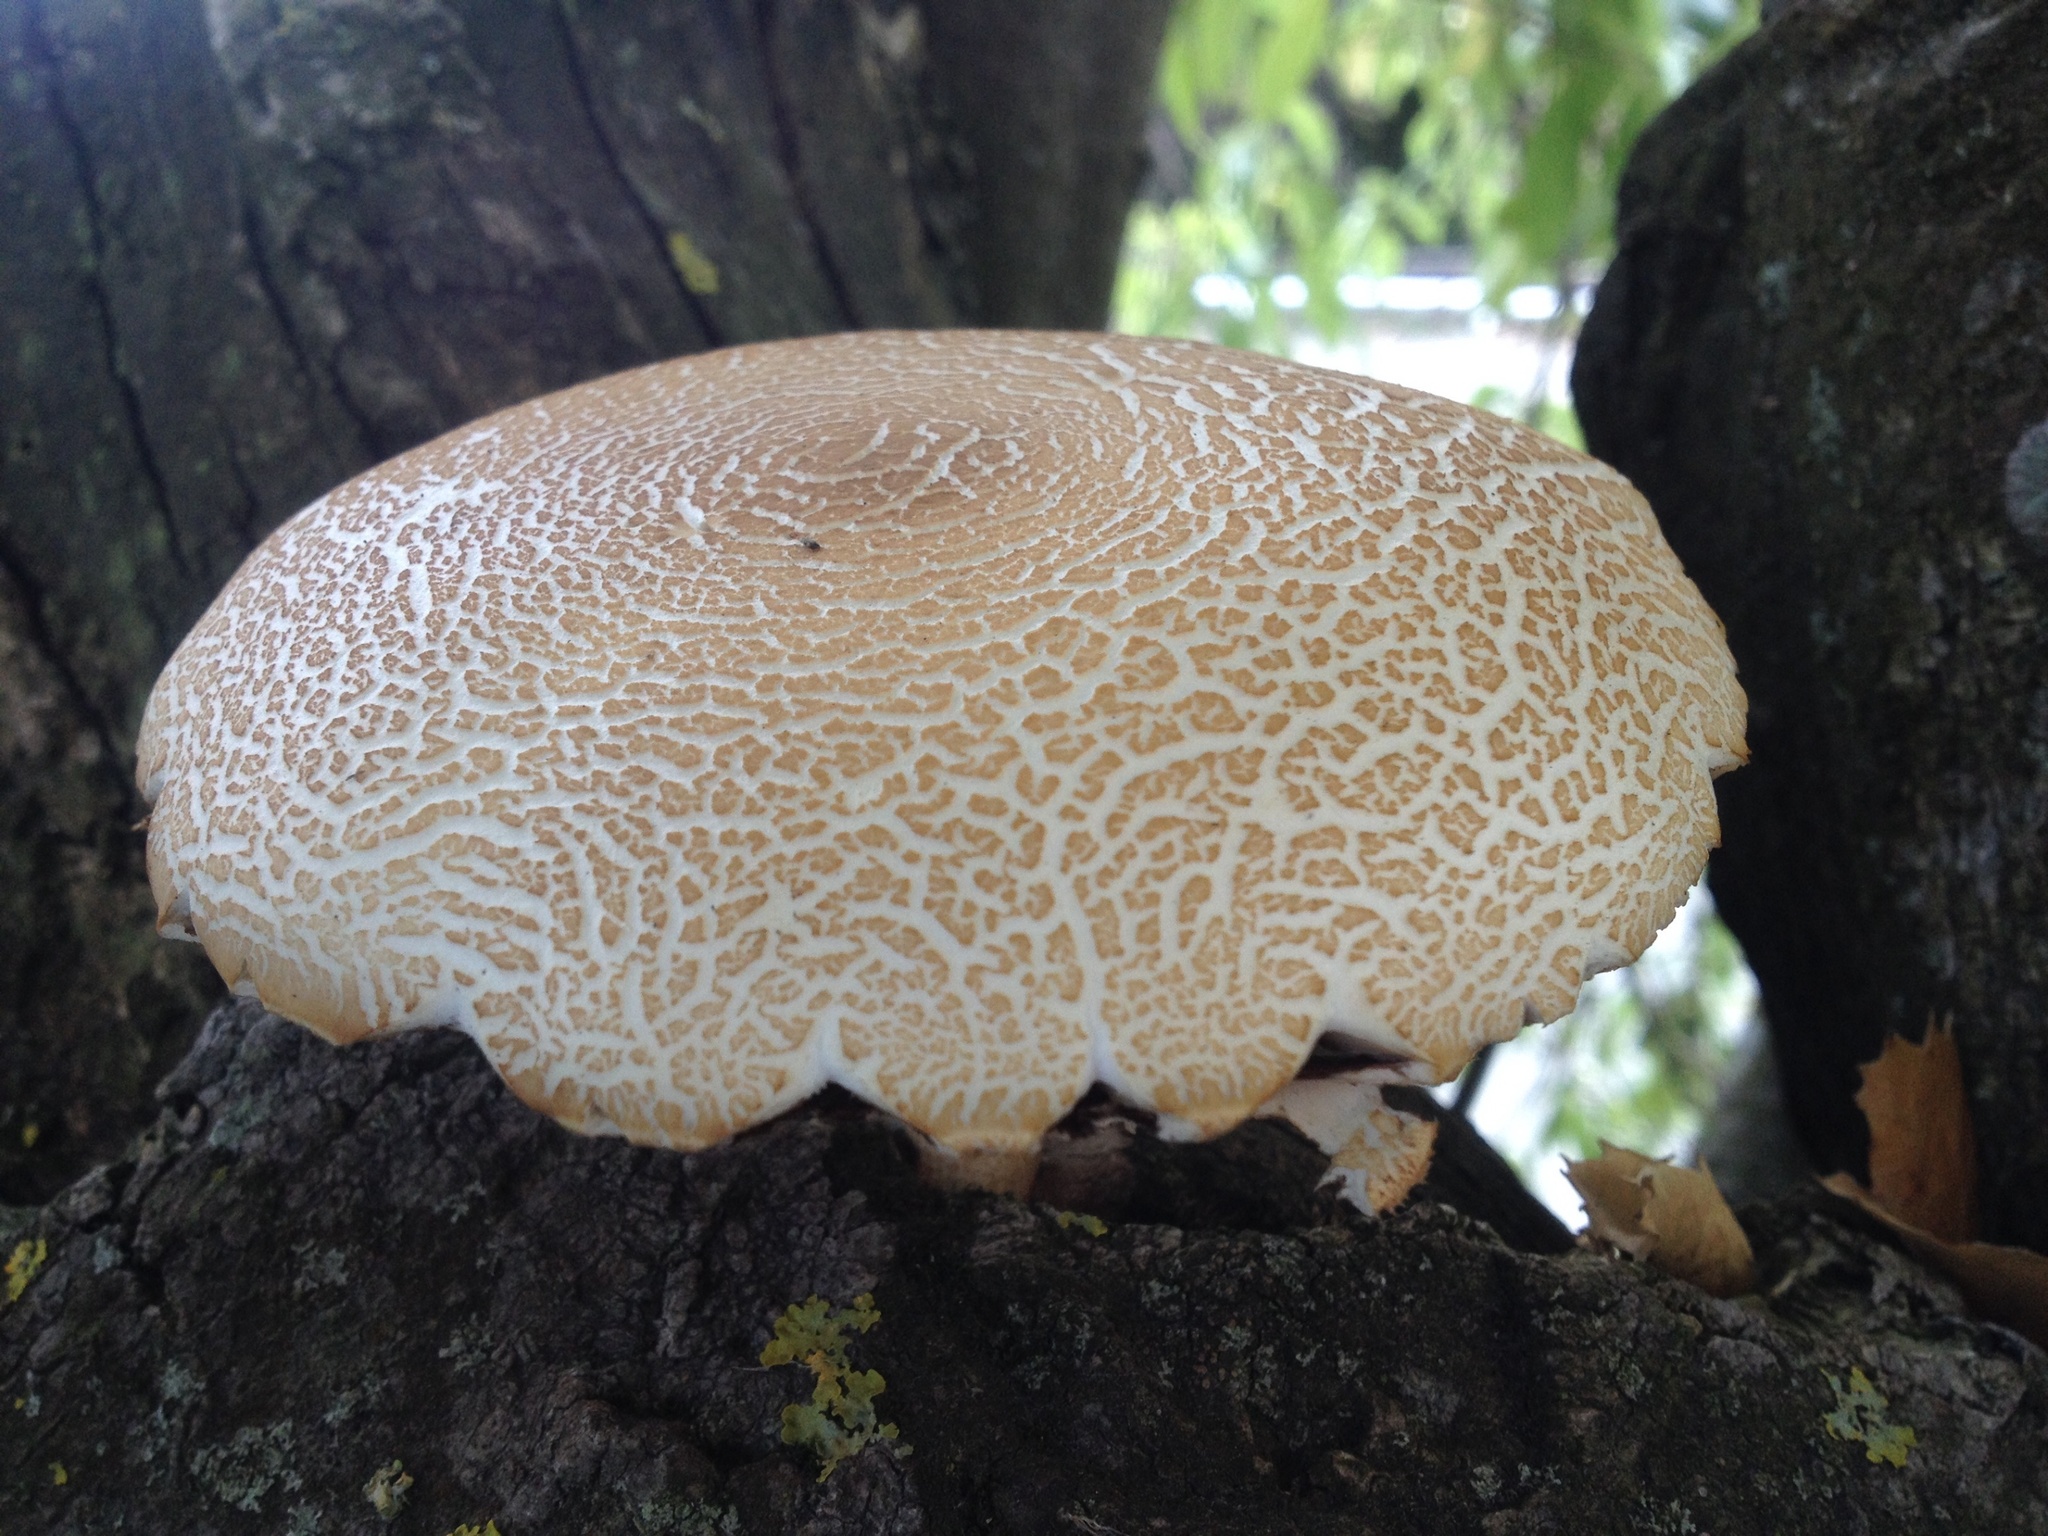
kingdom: Fungi
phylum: Basidiomycota
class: Agaricomycetes
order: Agaricales
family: Tubariaceae
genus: Cyclocybe
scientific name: Cyclocybe parasitica
